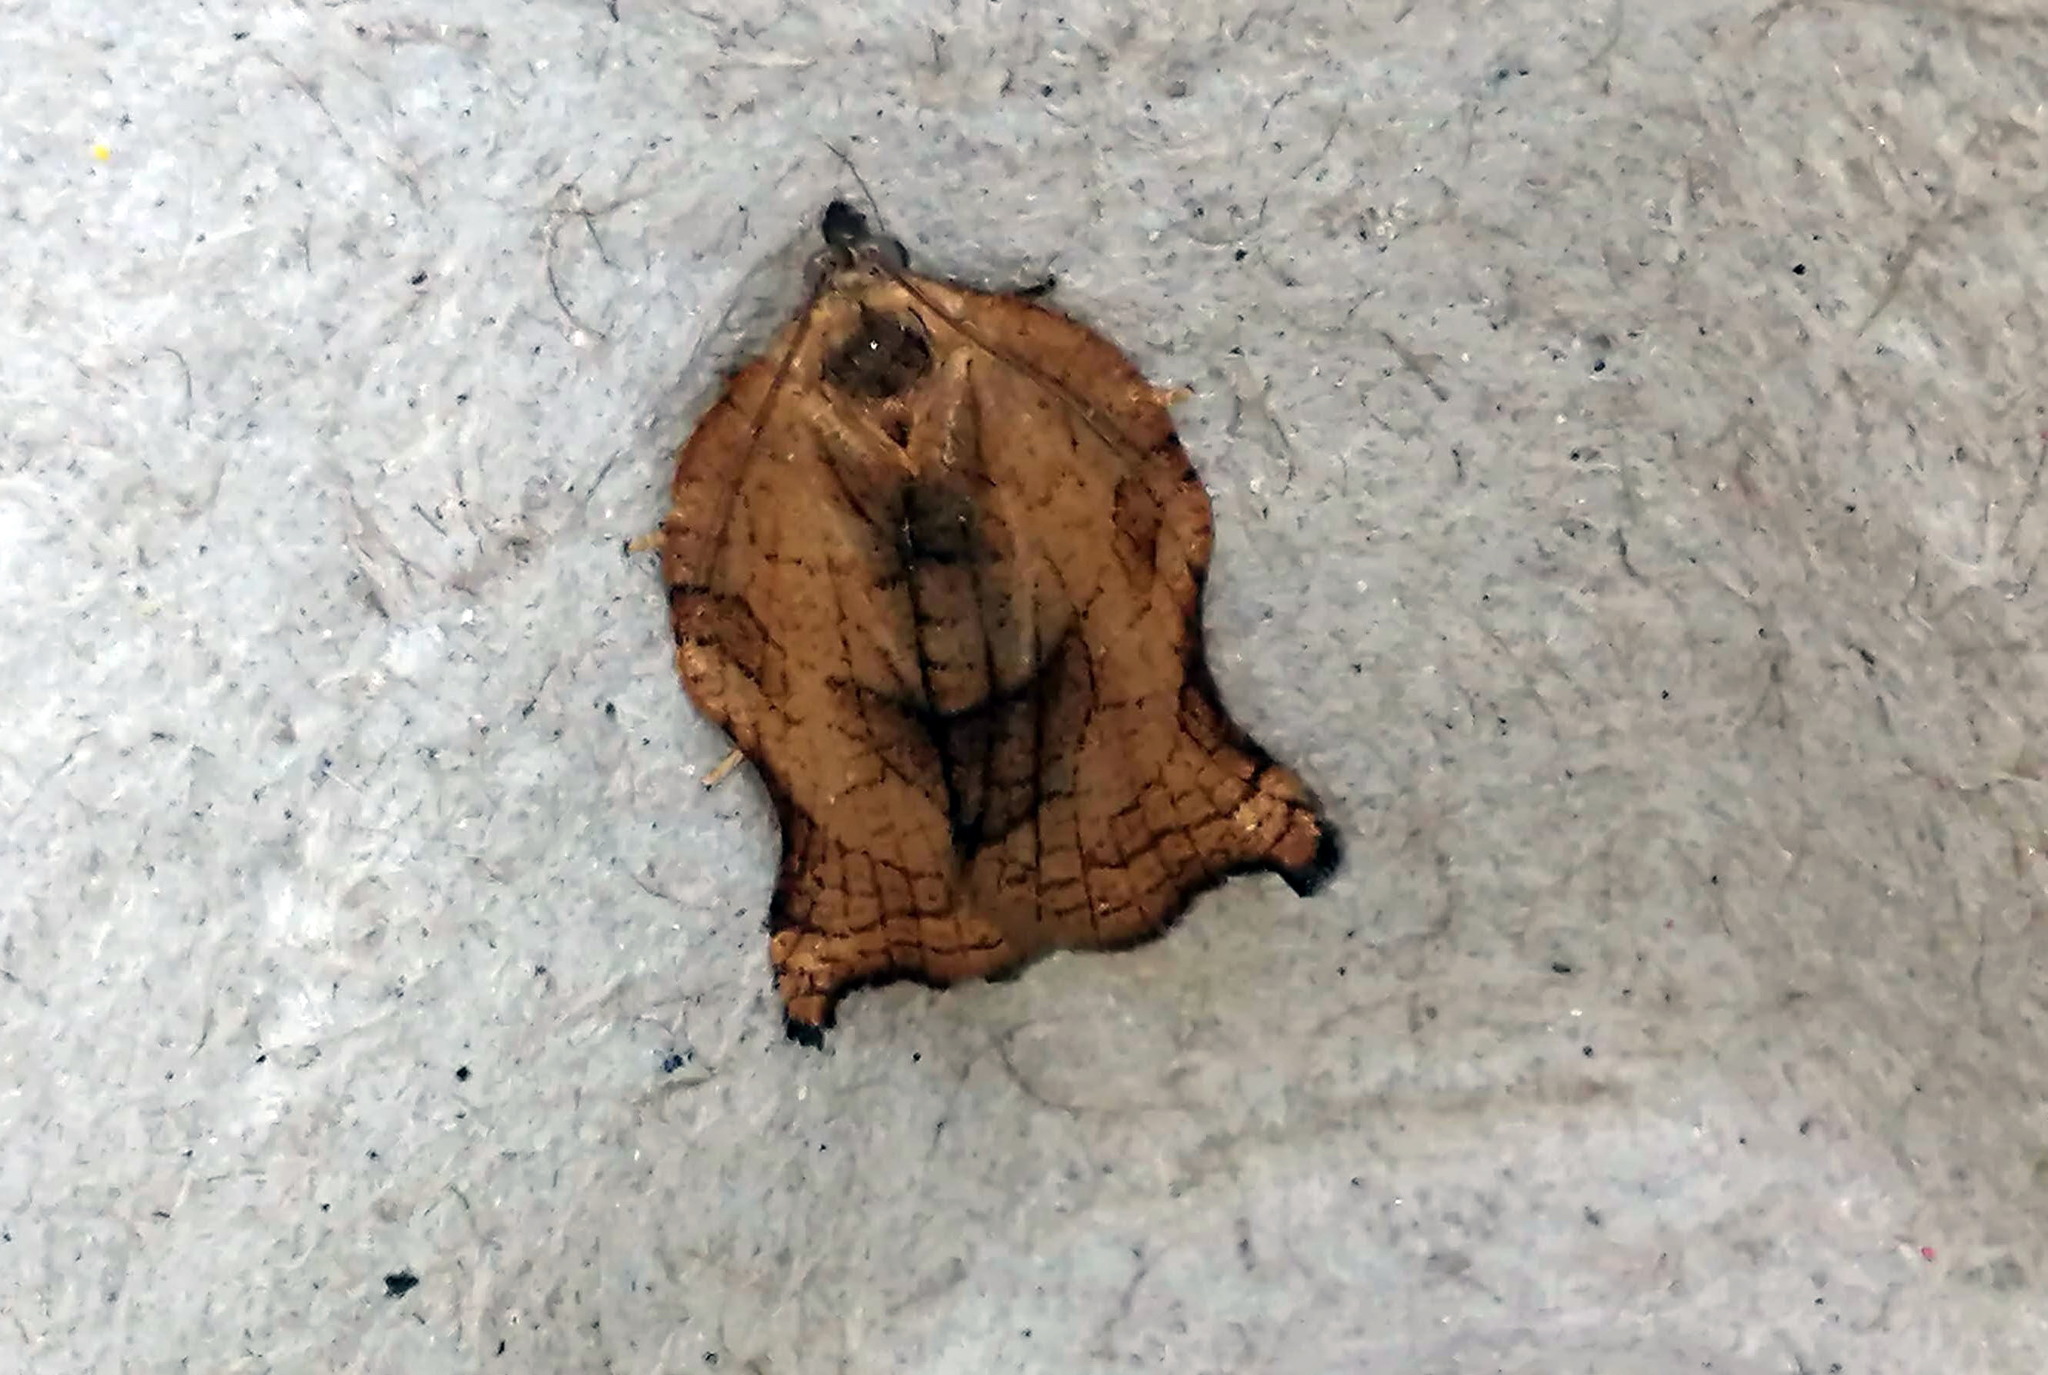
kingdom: Animalia
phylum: Arthropoda
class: Insecta
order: Lepidoptera
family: Tortricidae
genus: Archips
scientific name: Archips purpurana
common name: Omnivorous leafroller
